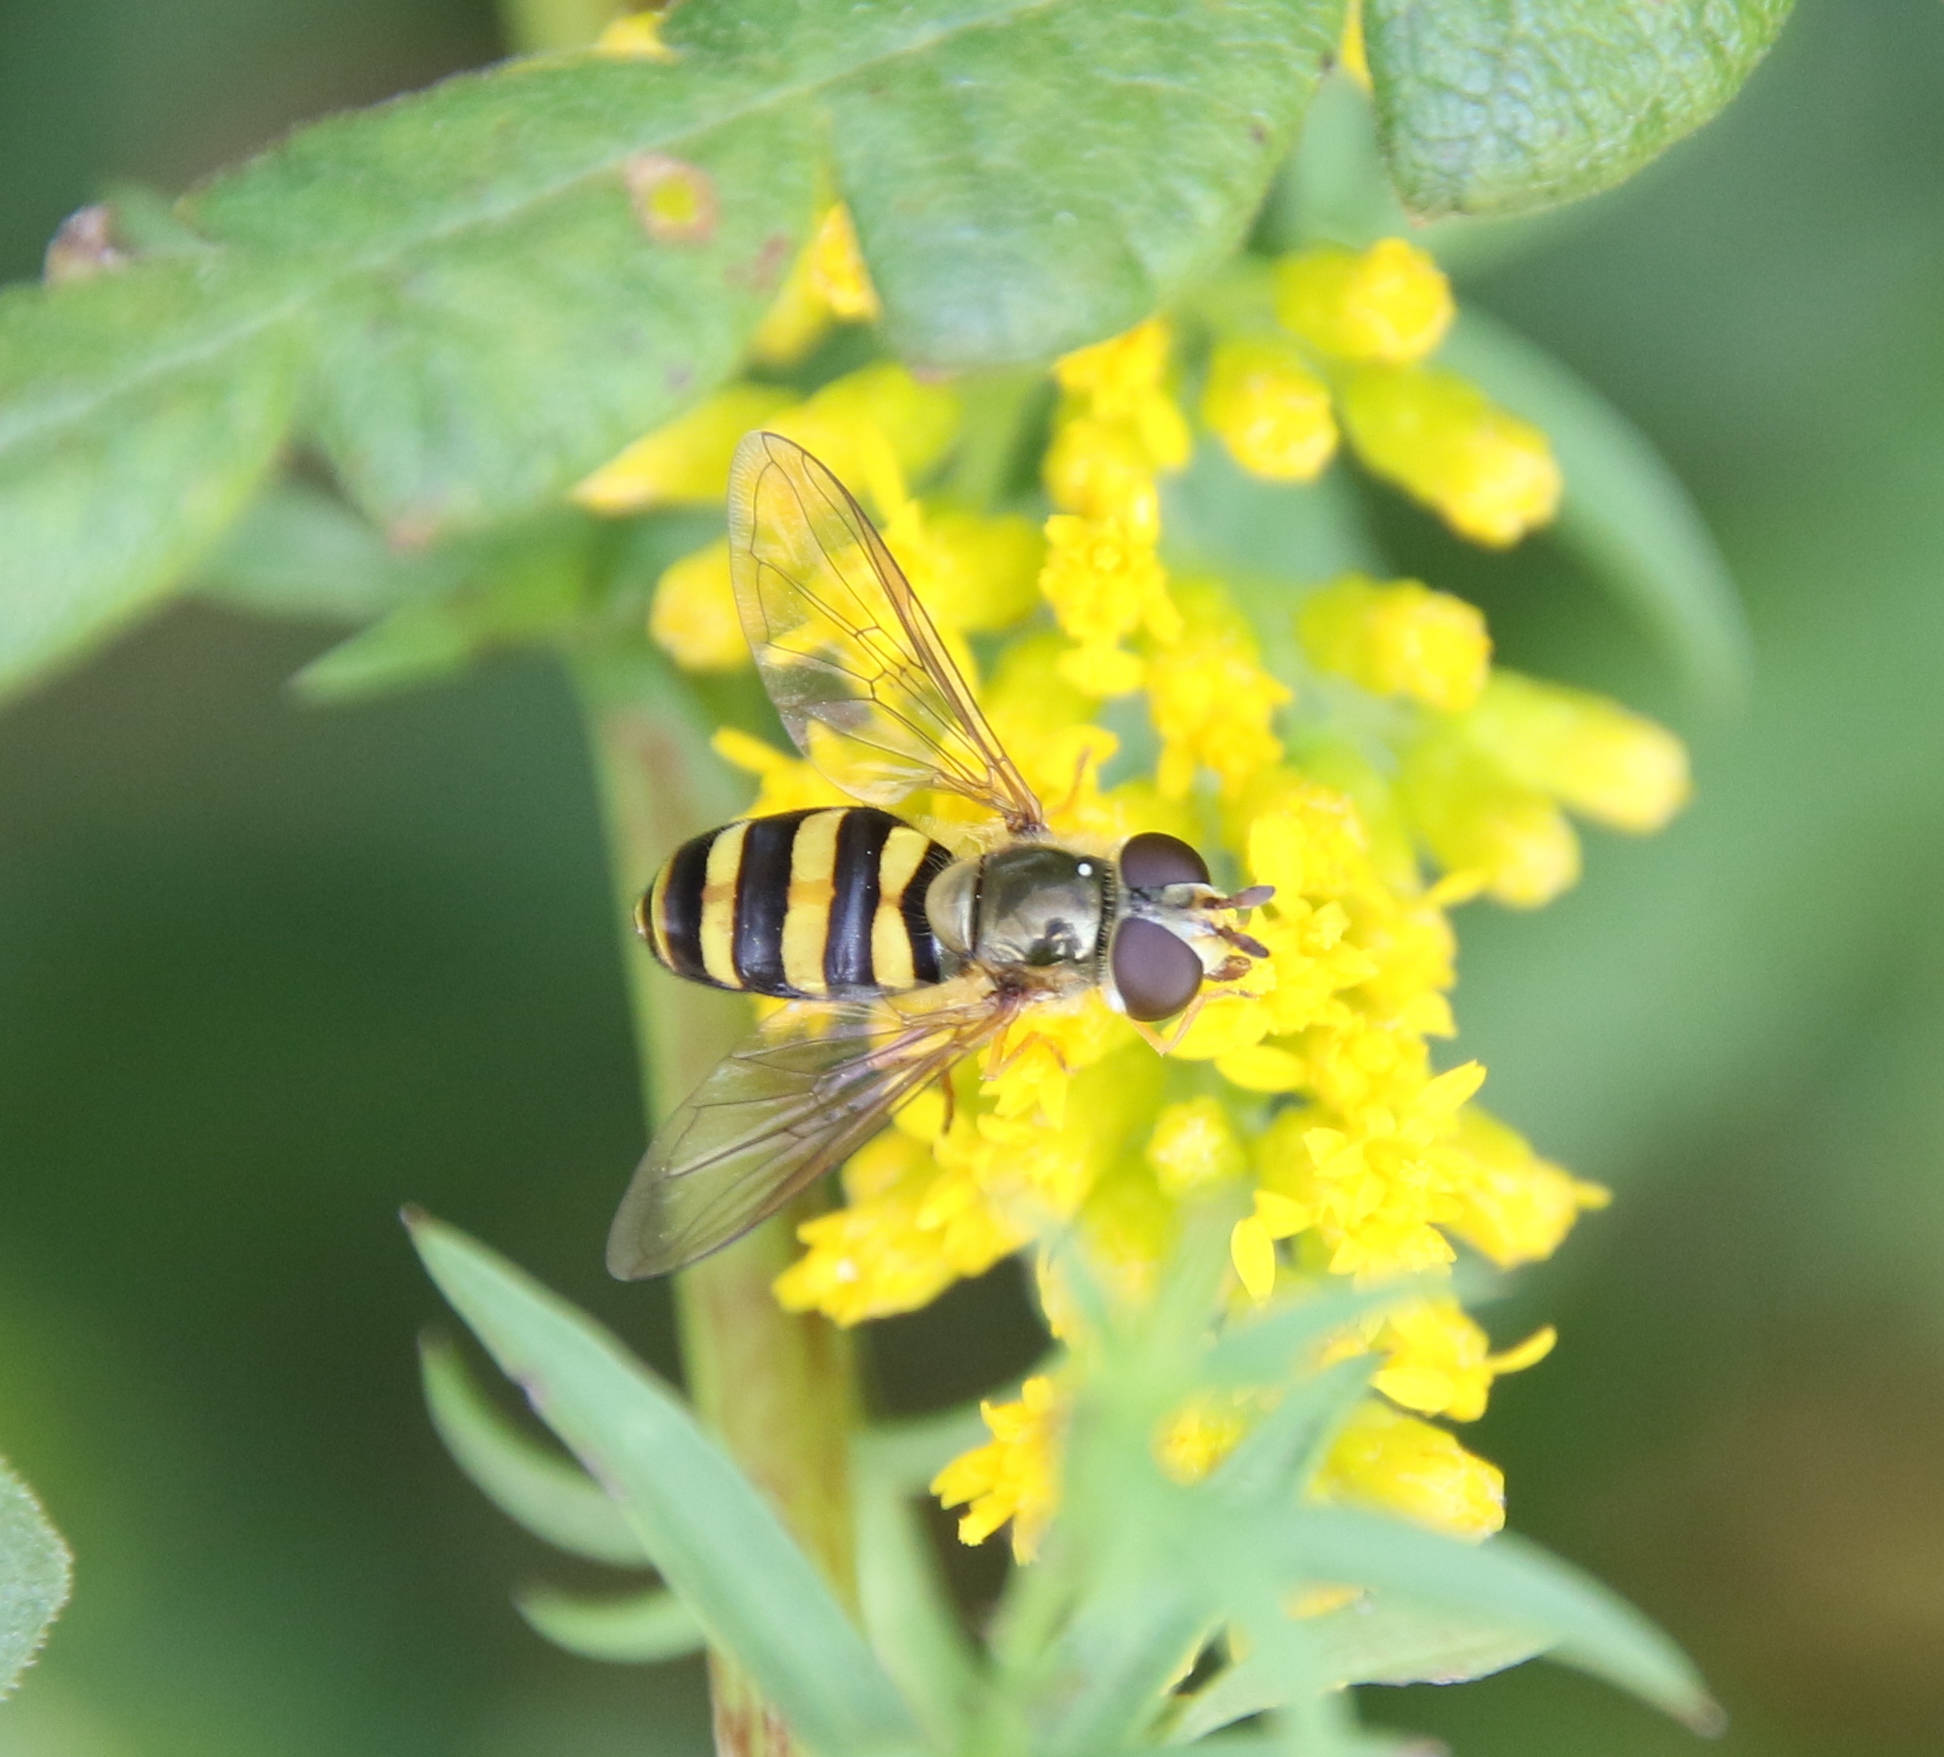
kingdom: Animalia
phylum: Arthropoda
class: Insecta
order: Diptera
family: Syrphidae
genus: Eupeodes
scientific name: Eupeodes
